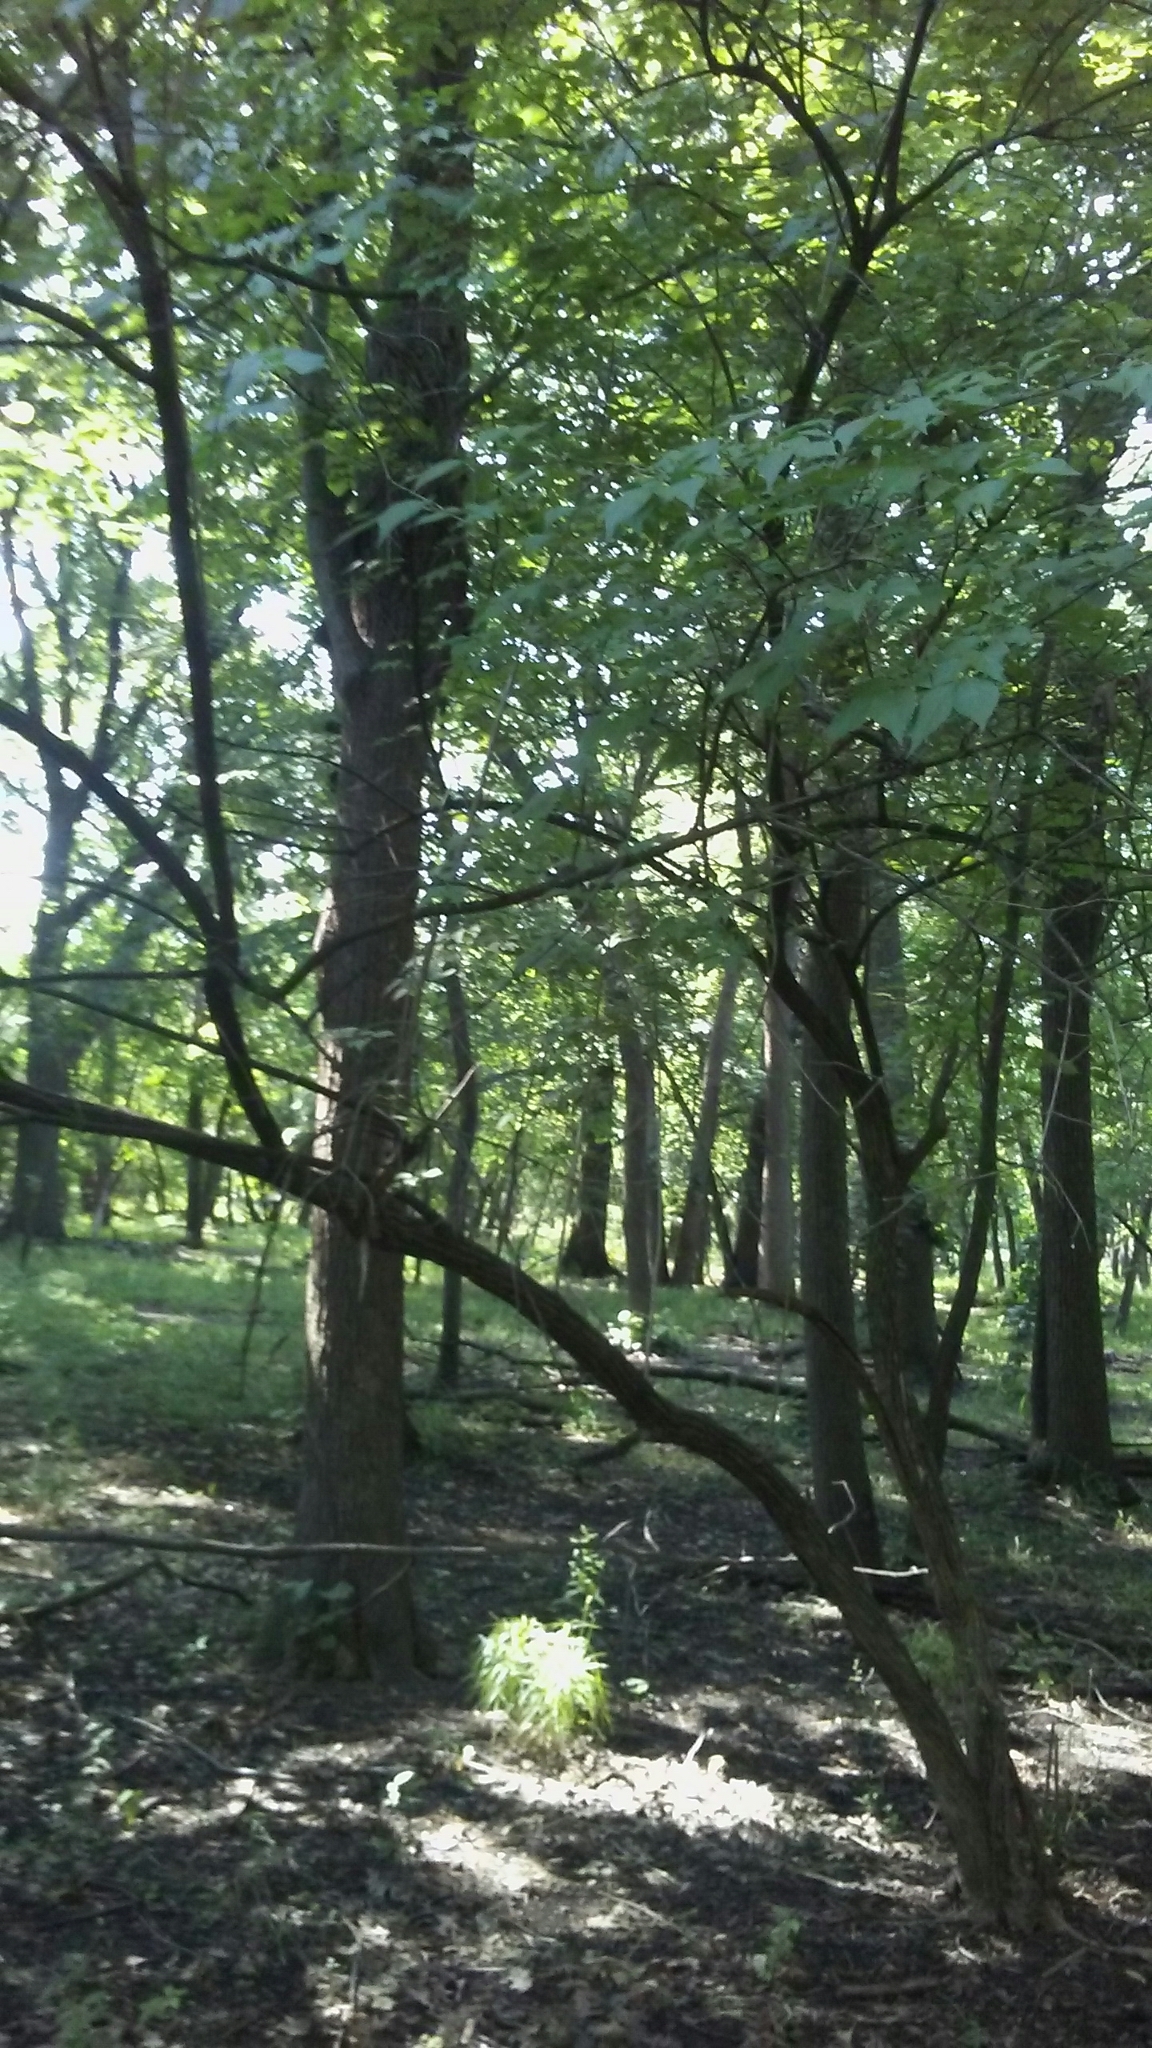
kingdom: Plantae
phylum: Tracheophyta
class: Magnoliopsida
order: Dipsacales
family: Caprifoliaceae
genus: Lonicera
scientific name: Lonicera maackii
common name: Amur honeysuckle
